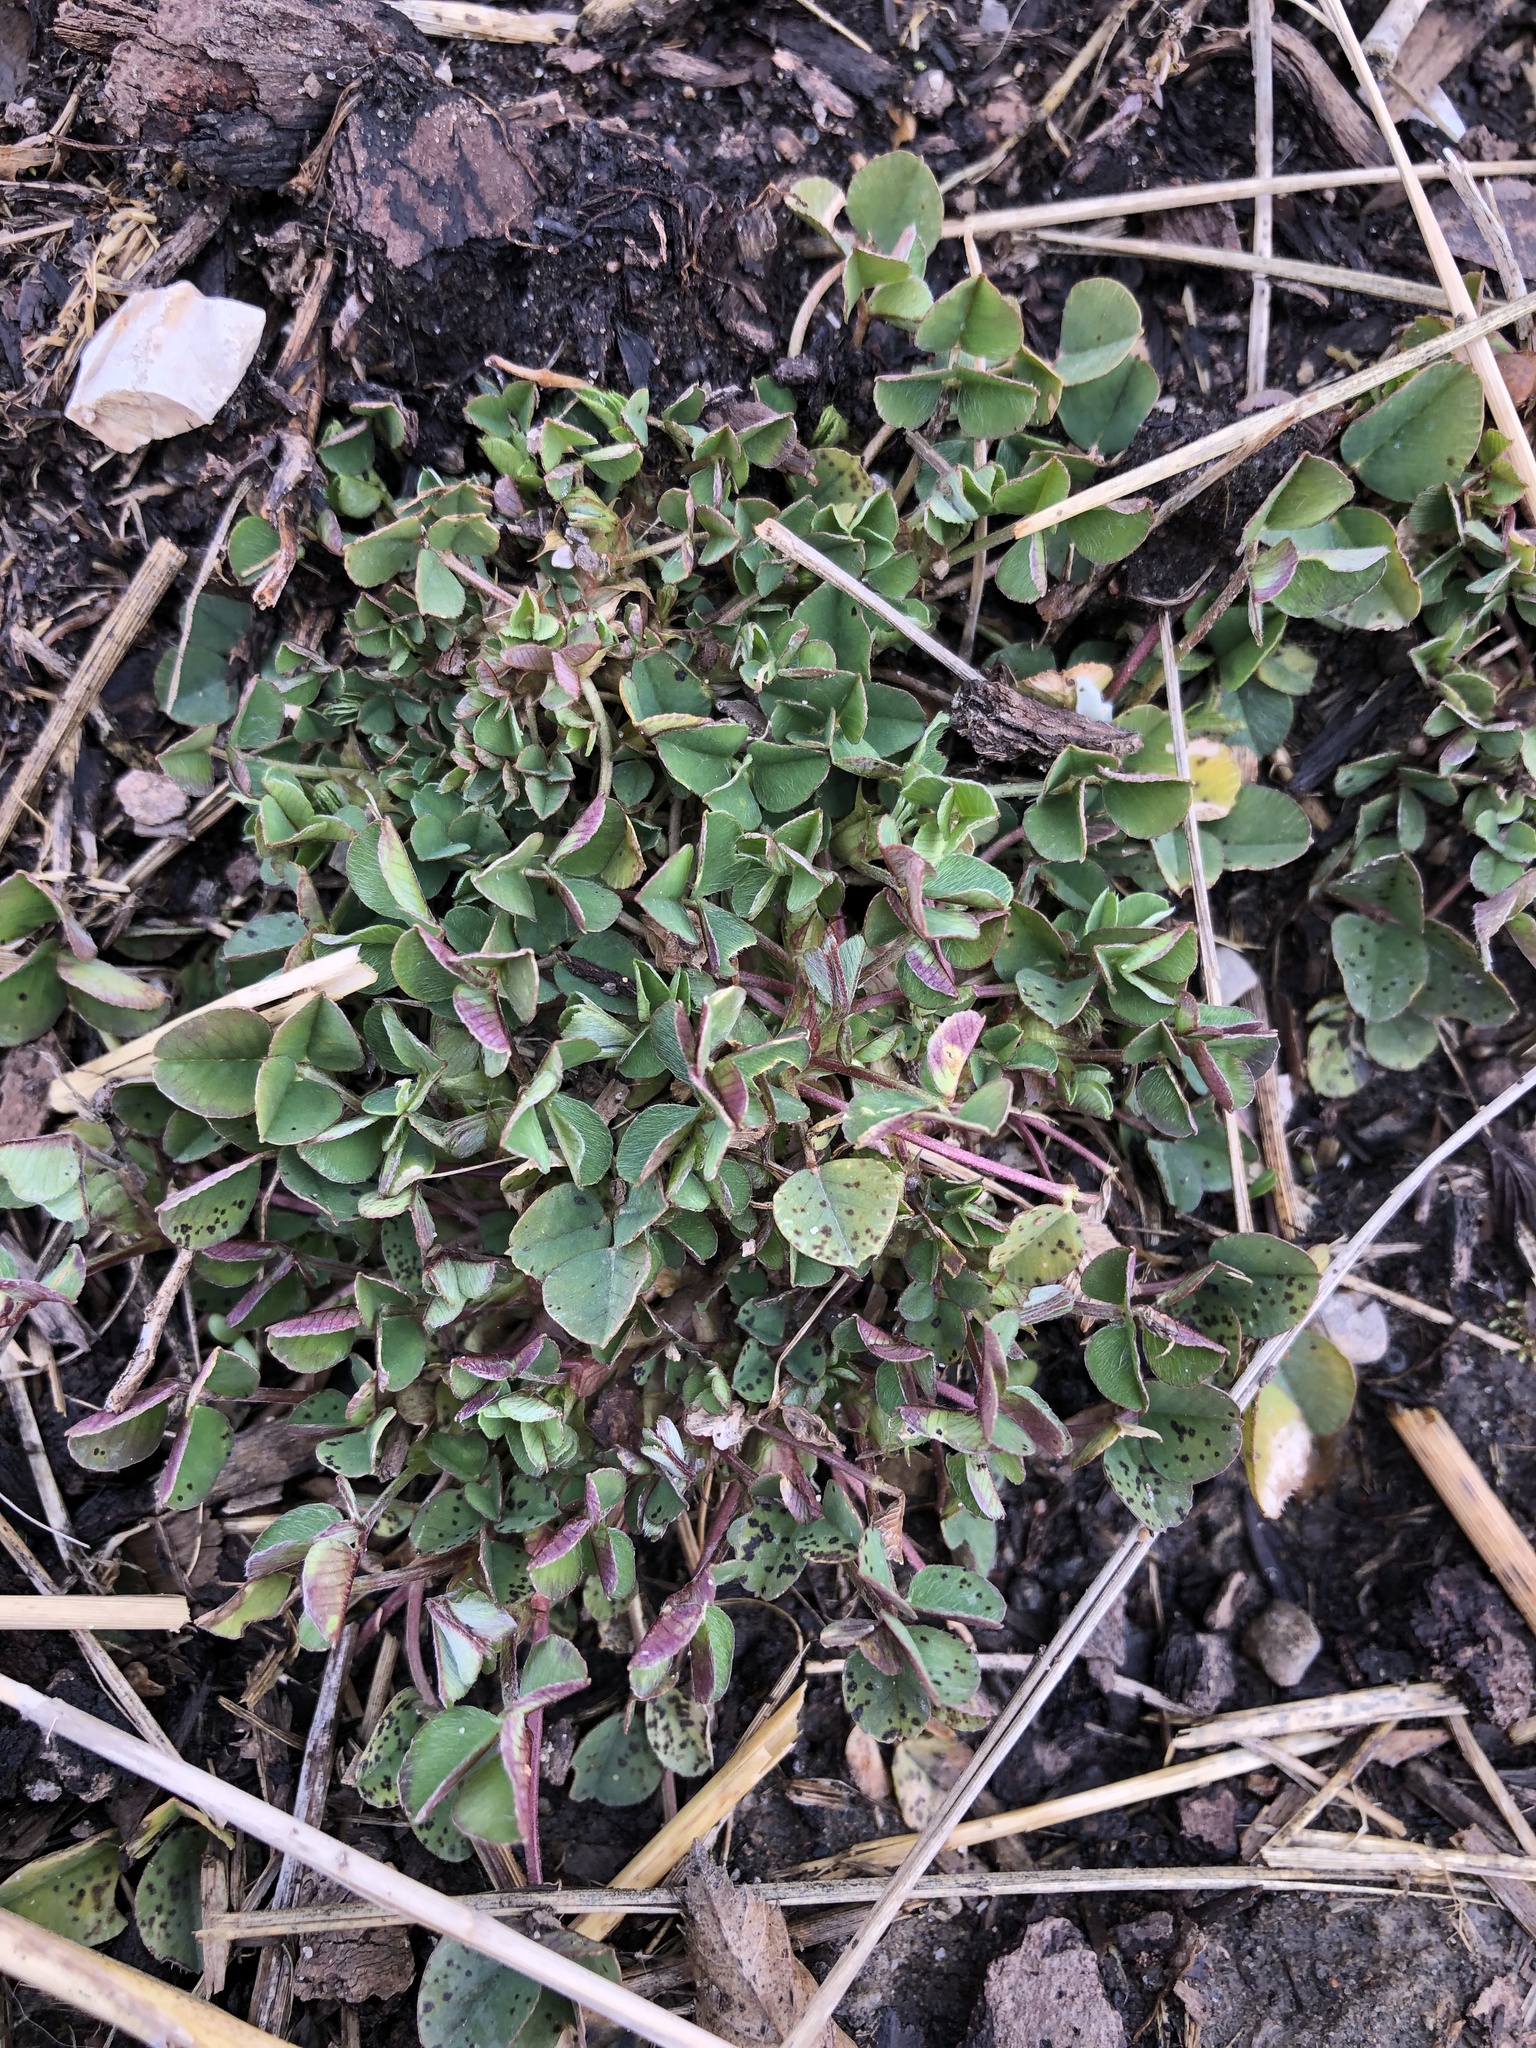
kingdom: Plantae
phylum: Tracheophyta
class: Magnoliopsida
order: Fabales
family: Fabaceae
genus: Medicago
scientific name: Medicago lupulina
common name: Black medick
